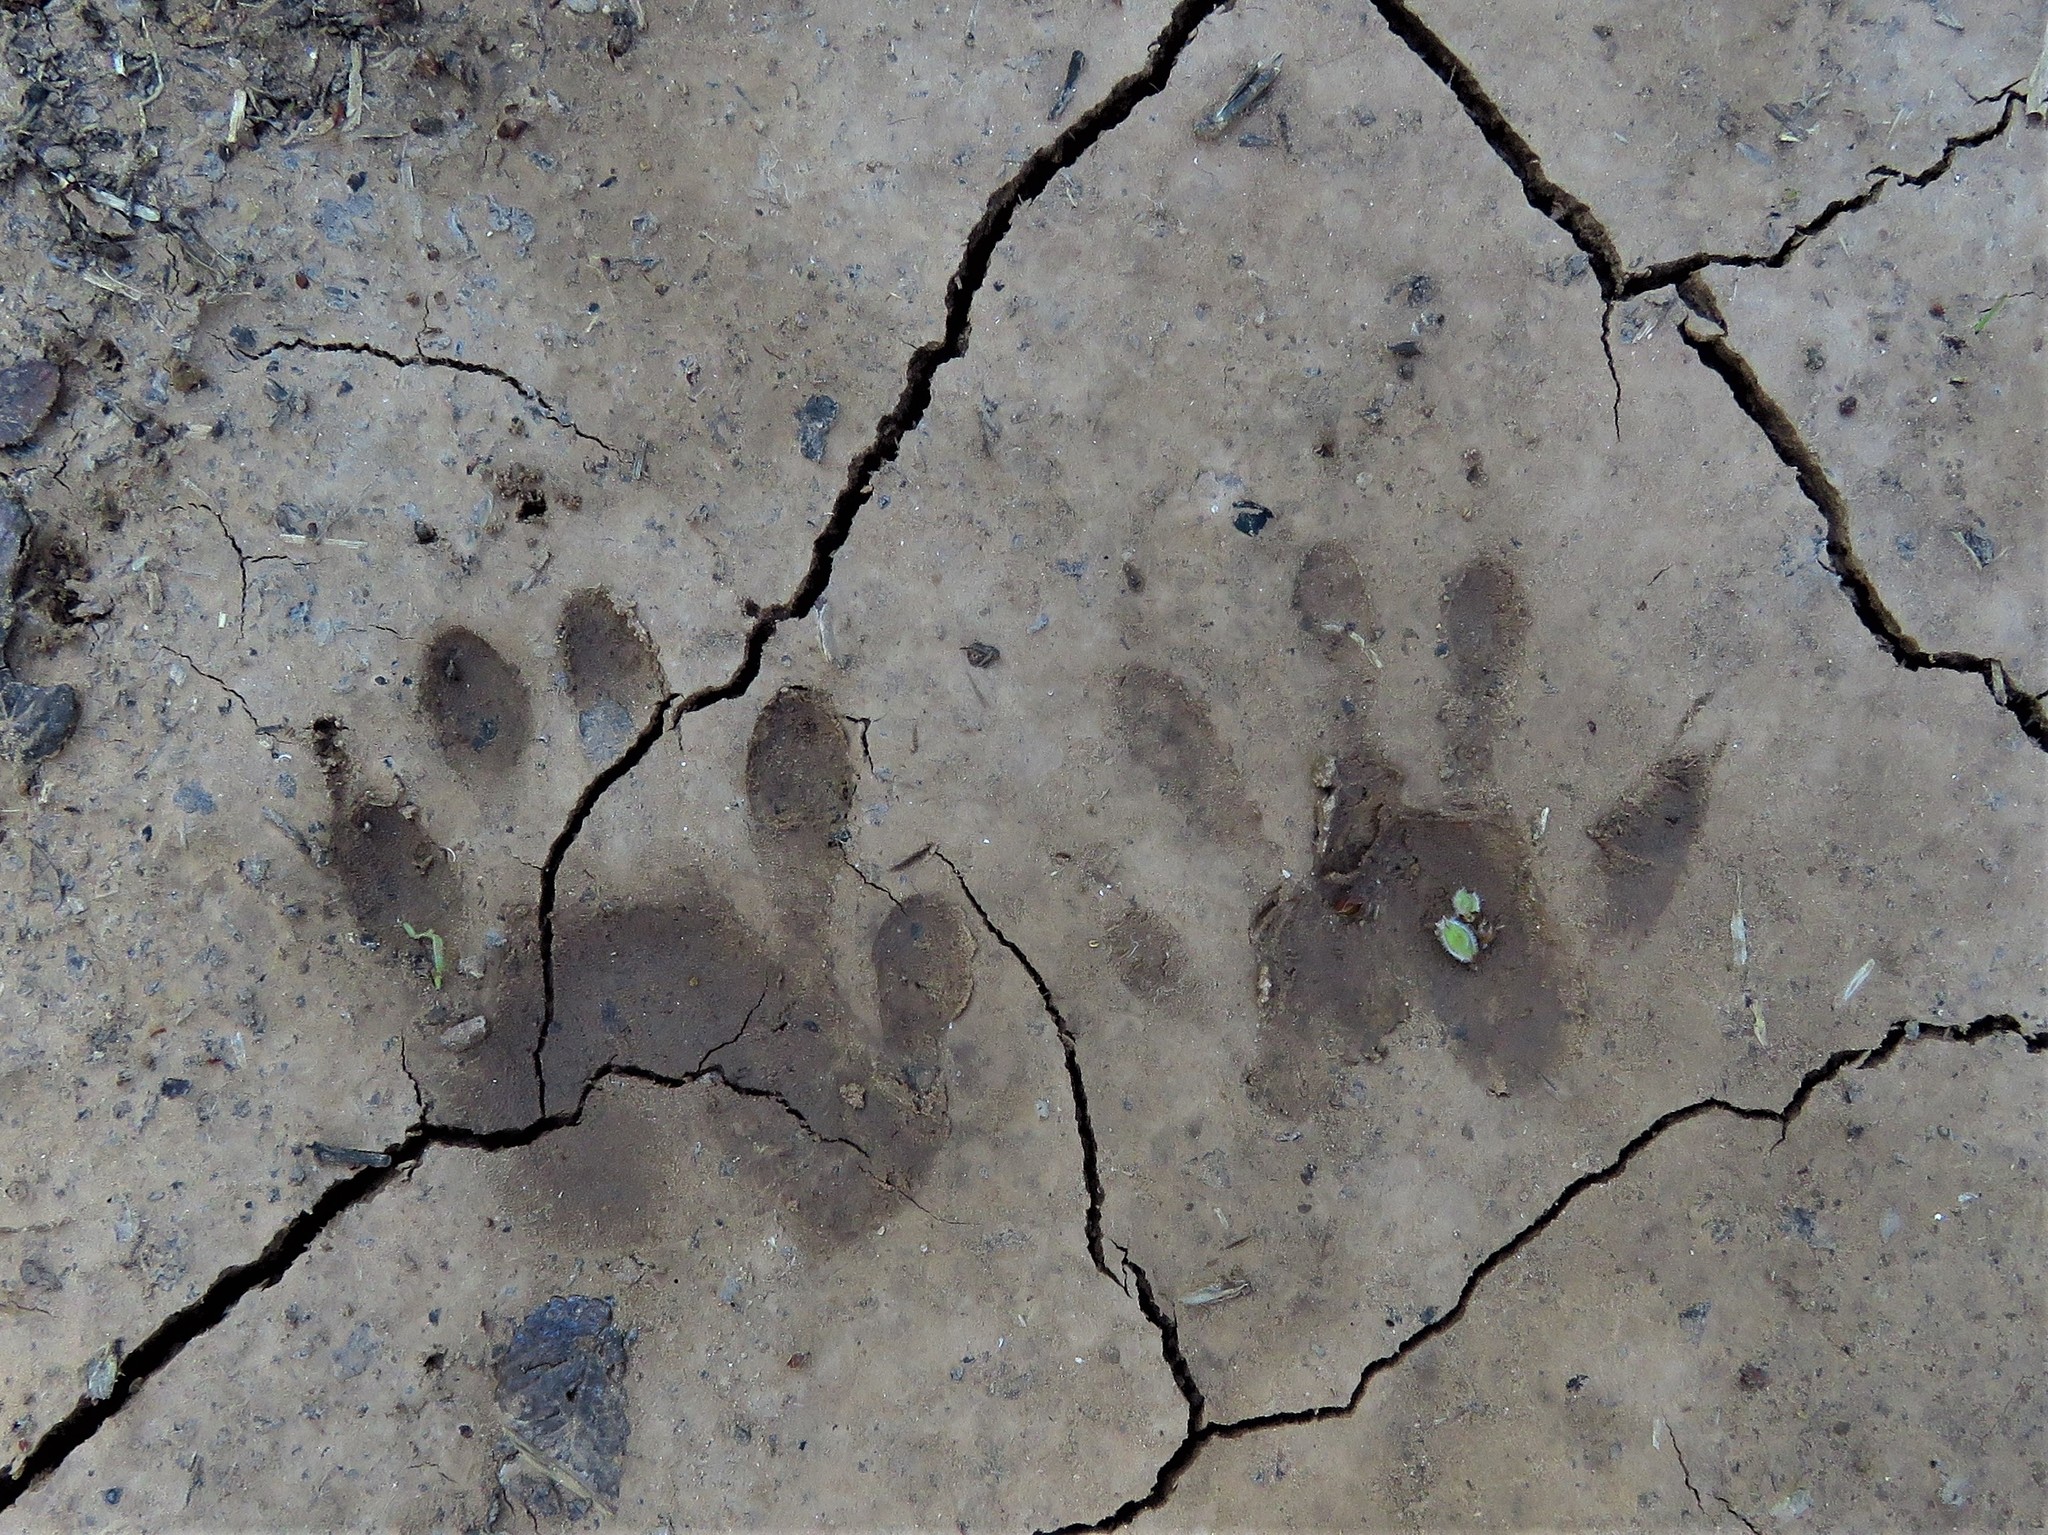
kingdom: Animalia
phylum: Chordata
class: Mammalia
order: Carnivora
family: Procyonidae
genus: Procyon
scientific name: Procyon lotor
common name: Raccoon
